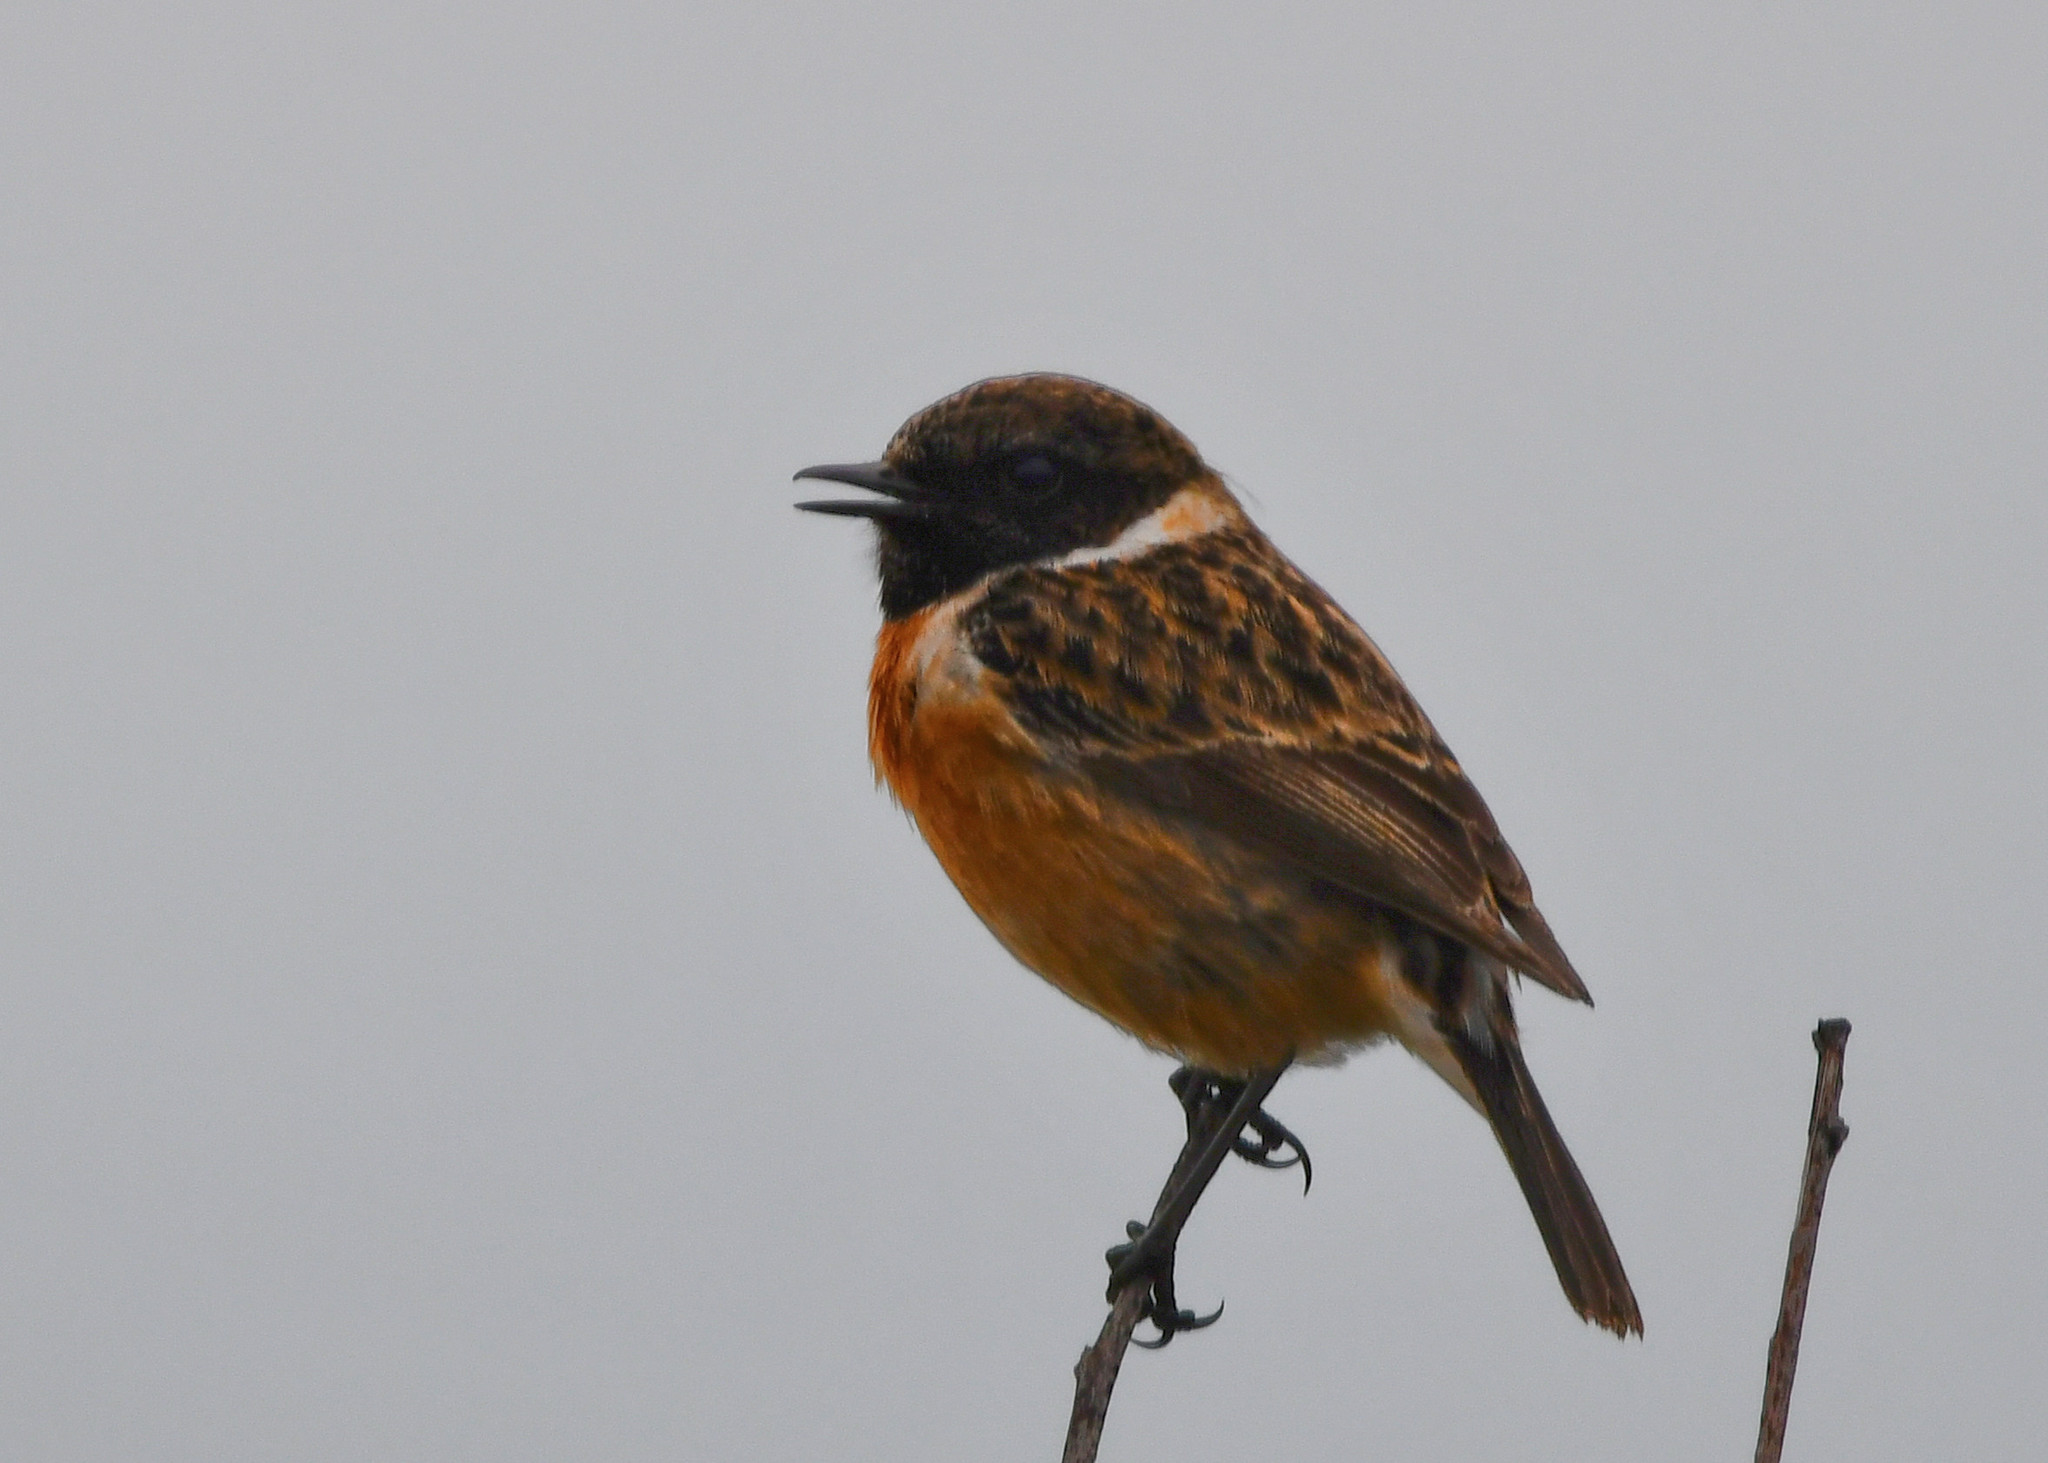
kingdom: Animalia
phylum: Chordata
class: Aves
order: Passeriformes
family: Muscicapidae
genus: Saxicola
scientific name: Saxicola rubicola
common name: European stonechat
